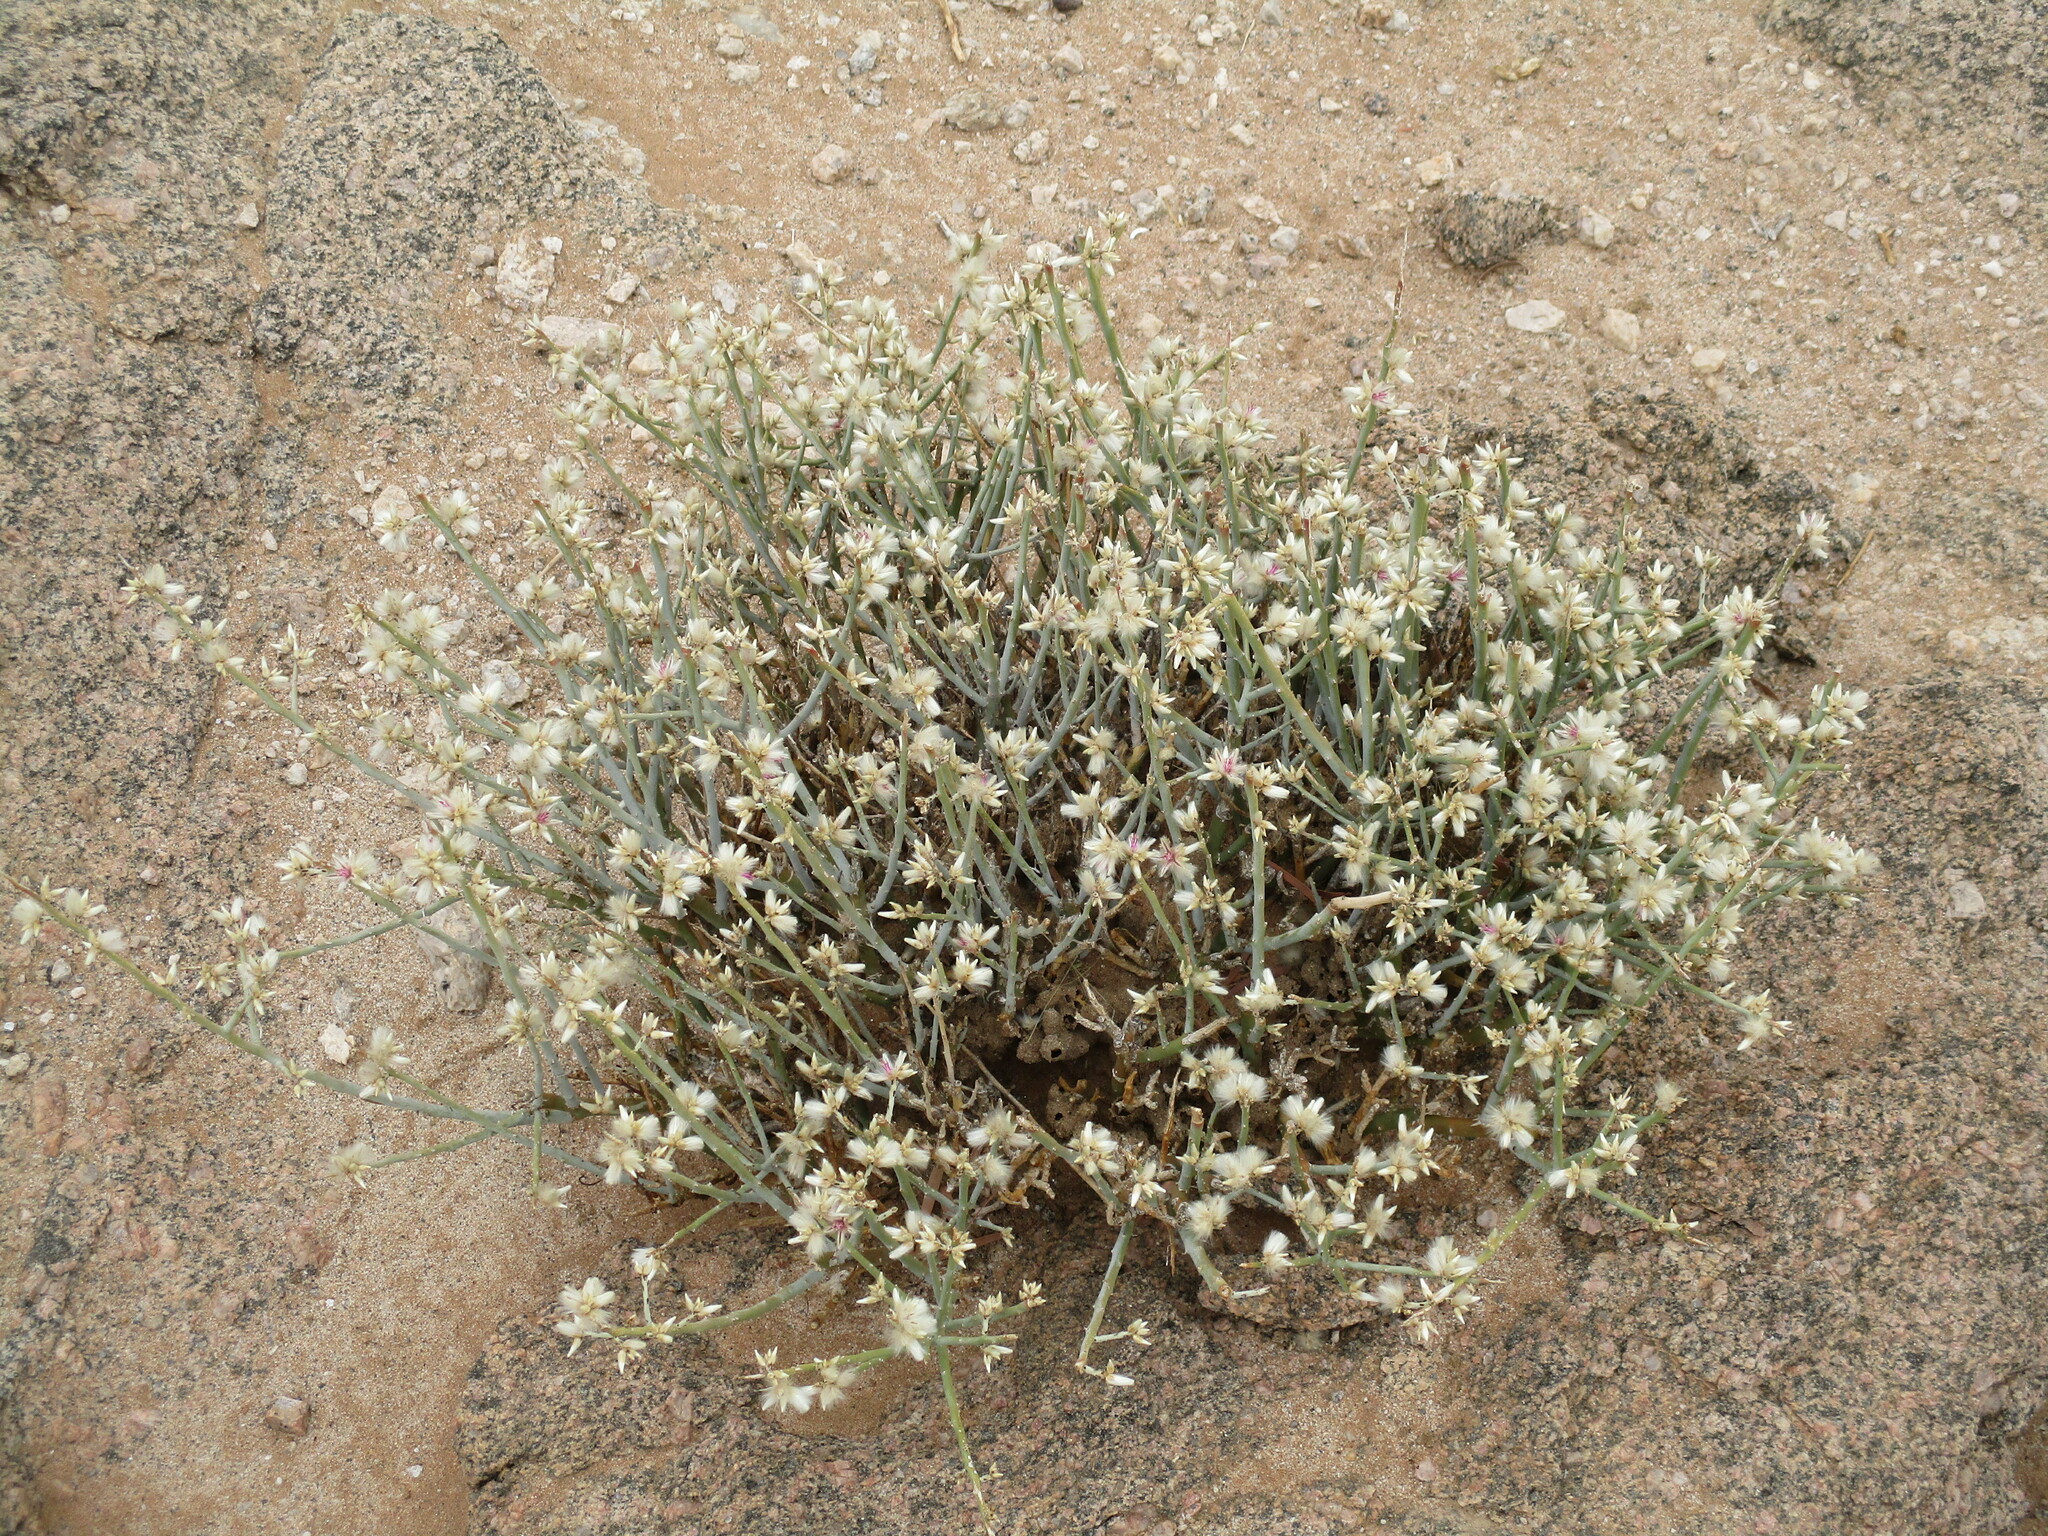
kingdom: Plantae
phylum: Tracheophyta
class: Magnoliopsida
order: Caryophyllales
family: Amaranthaceae
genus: Calicorema
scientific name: Calicorema capitata
